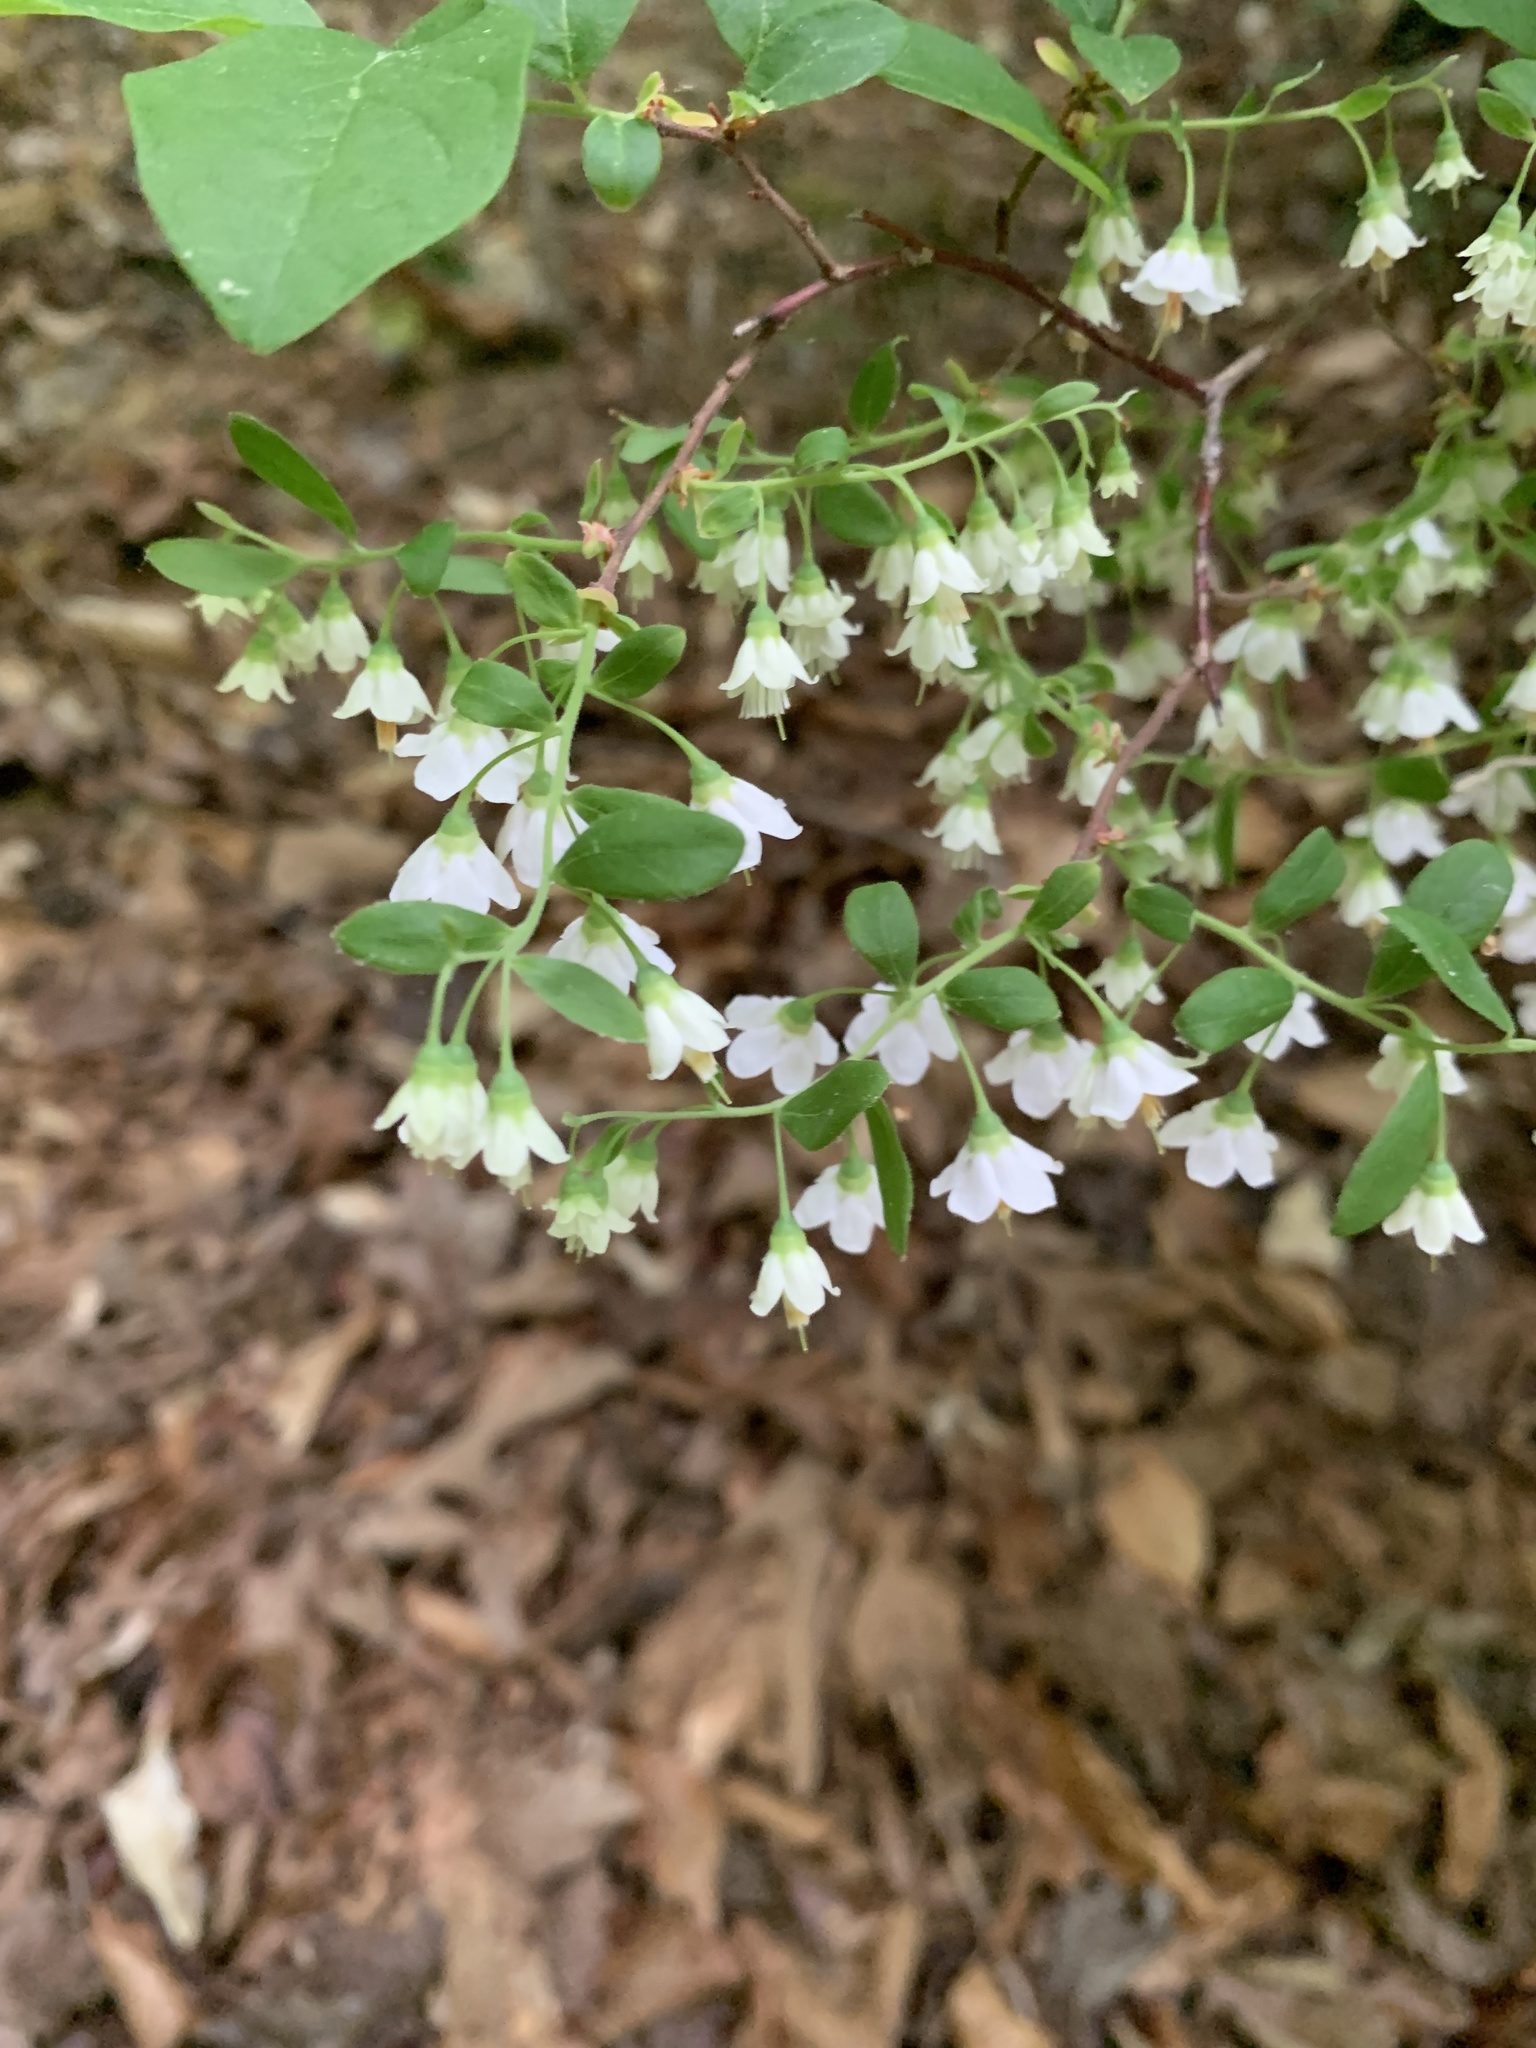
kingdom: Plantae
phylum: Tracheophyta
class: Magnoliopsida
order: Ericales
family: Ericaceae
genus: Vaccinium
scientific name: Vaccinium stamineum
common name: Deerberry
